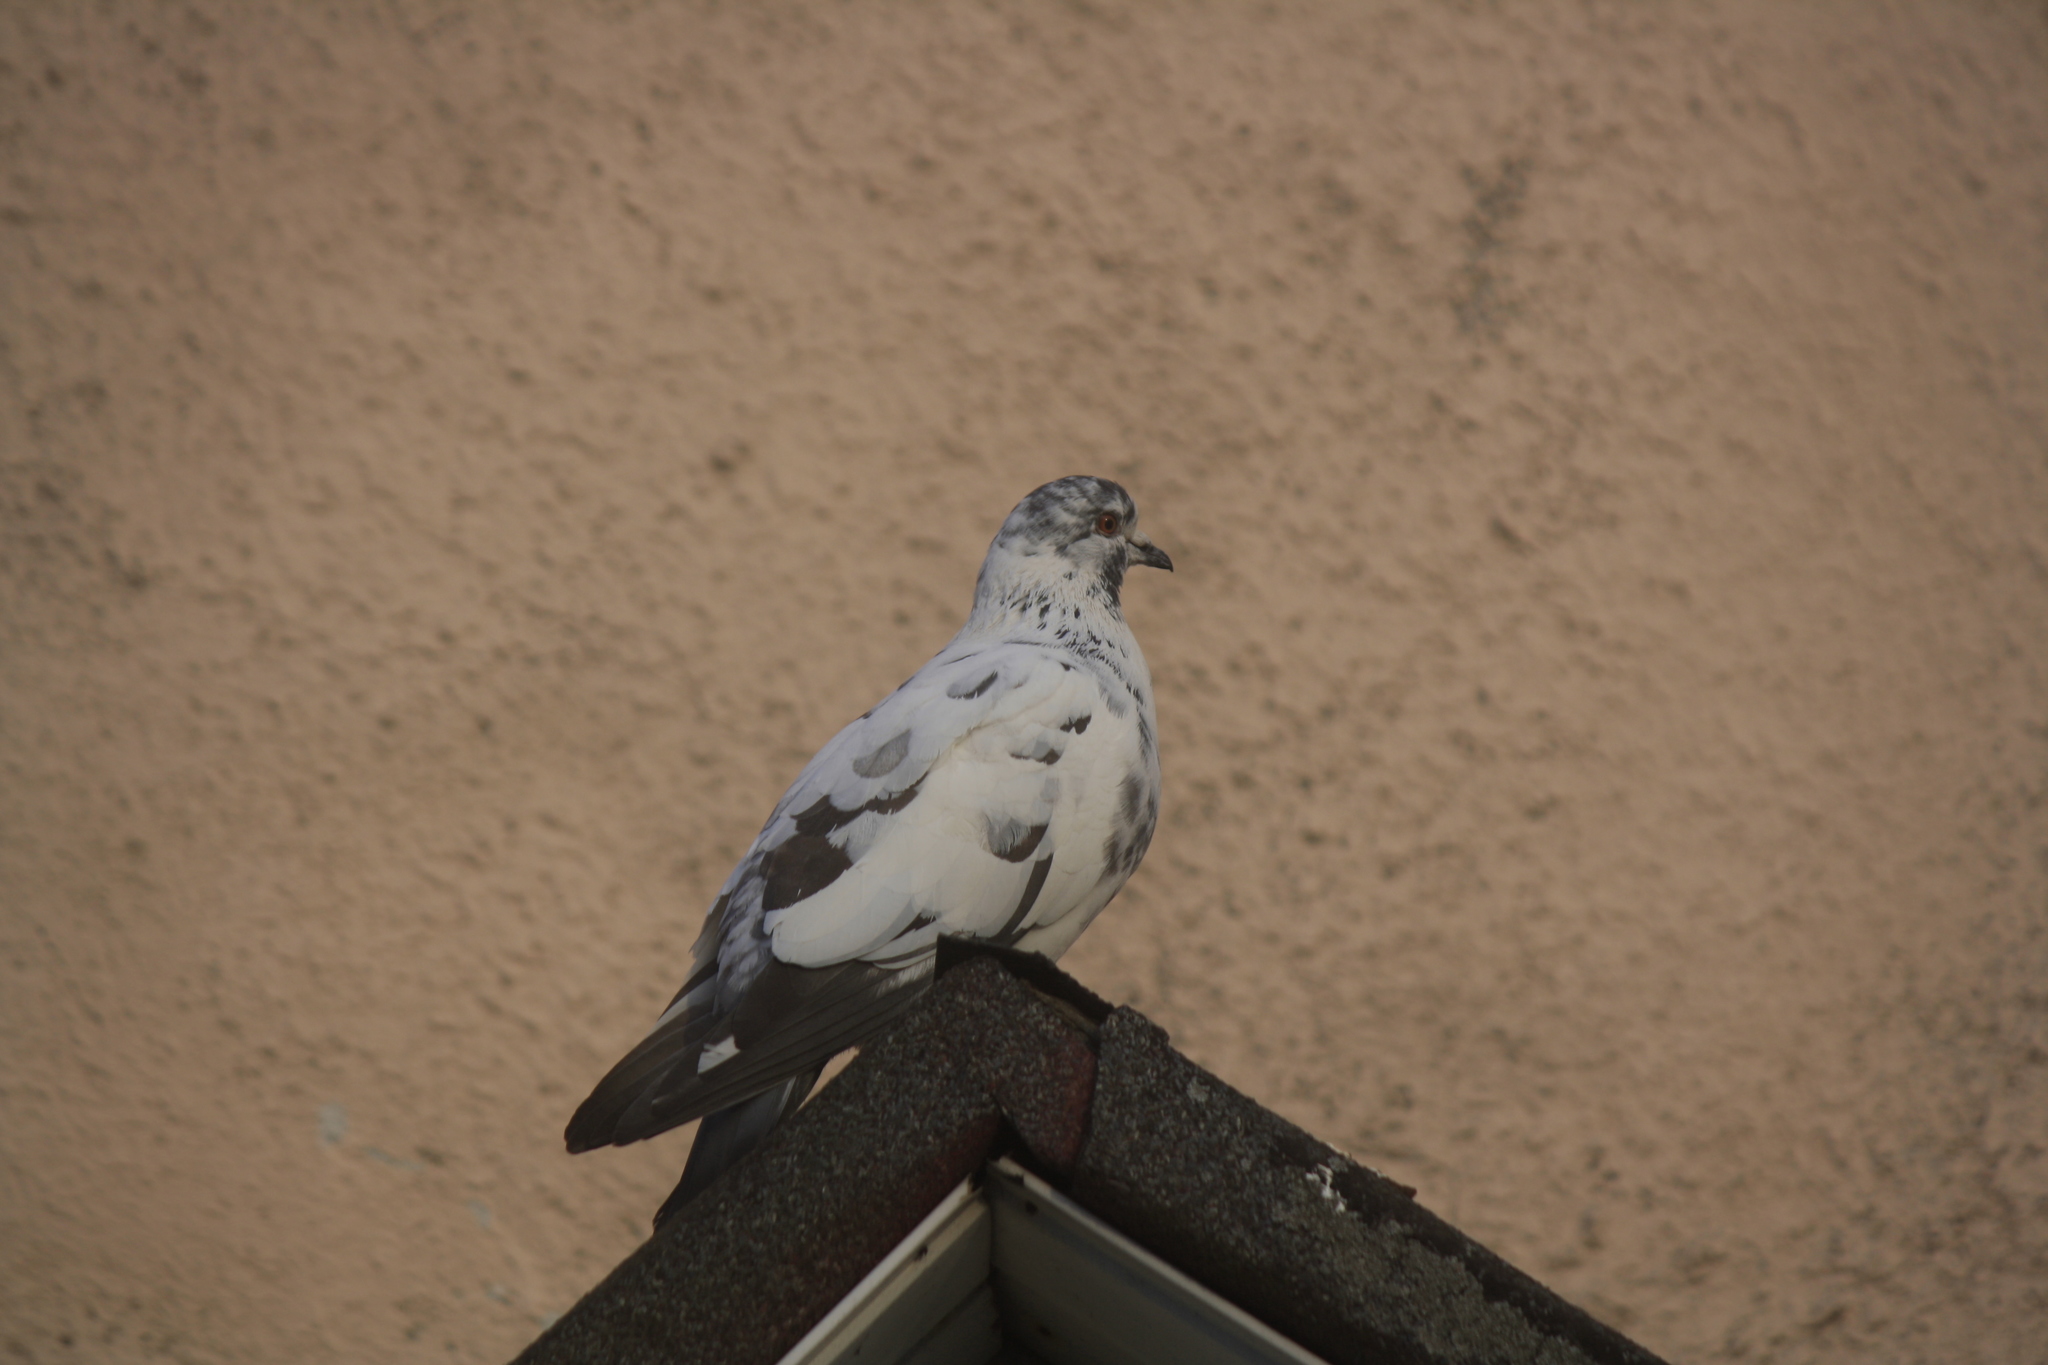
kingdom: Animalia
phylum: Chordata
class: Aves
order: Columbiformes
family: Columbidae
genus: Columba
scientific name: Columba livia
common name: Rock pigeon
